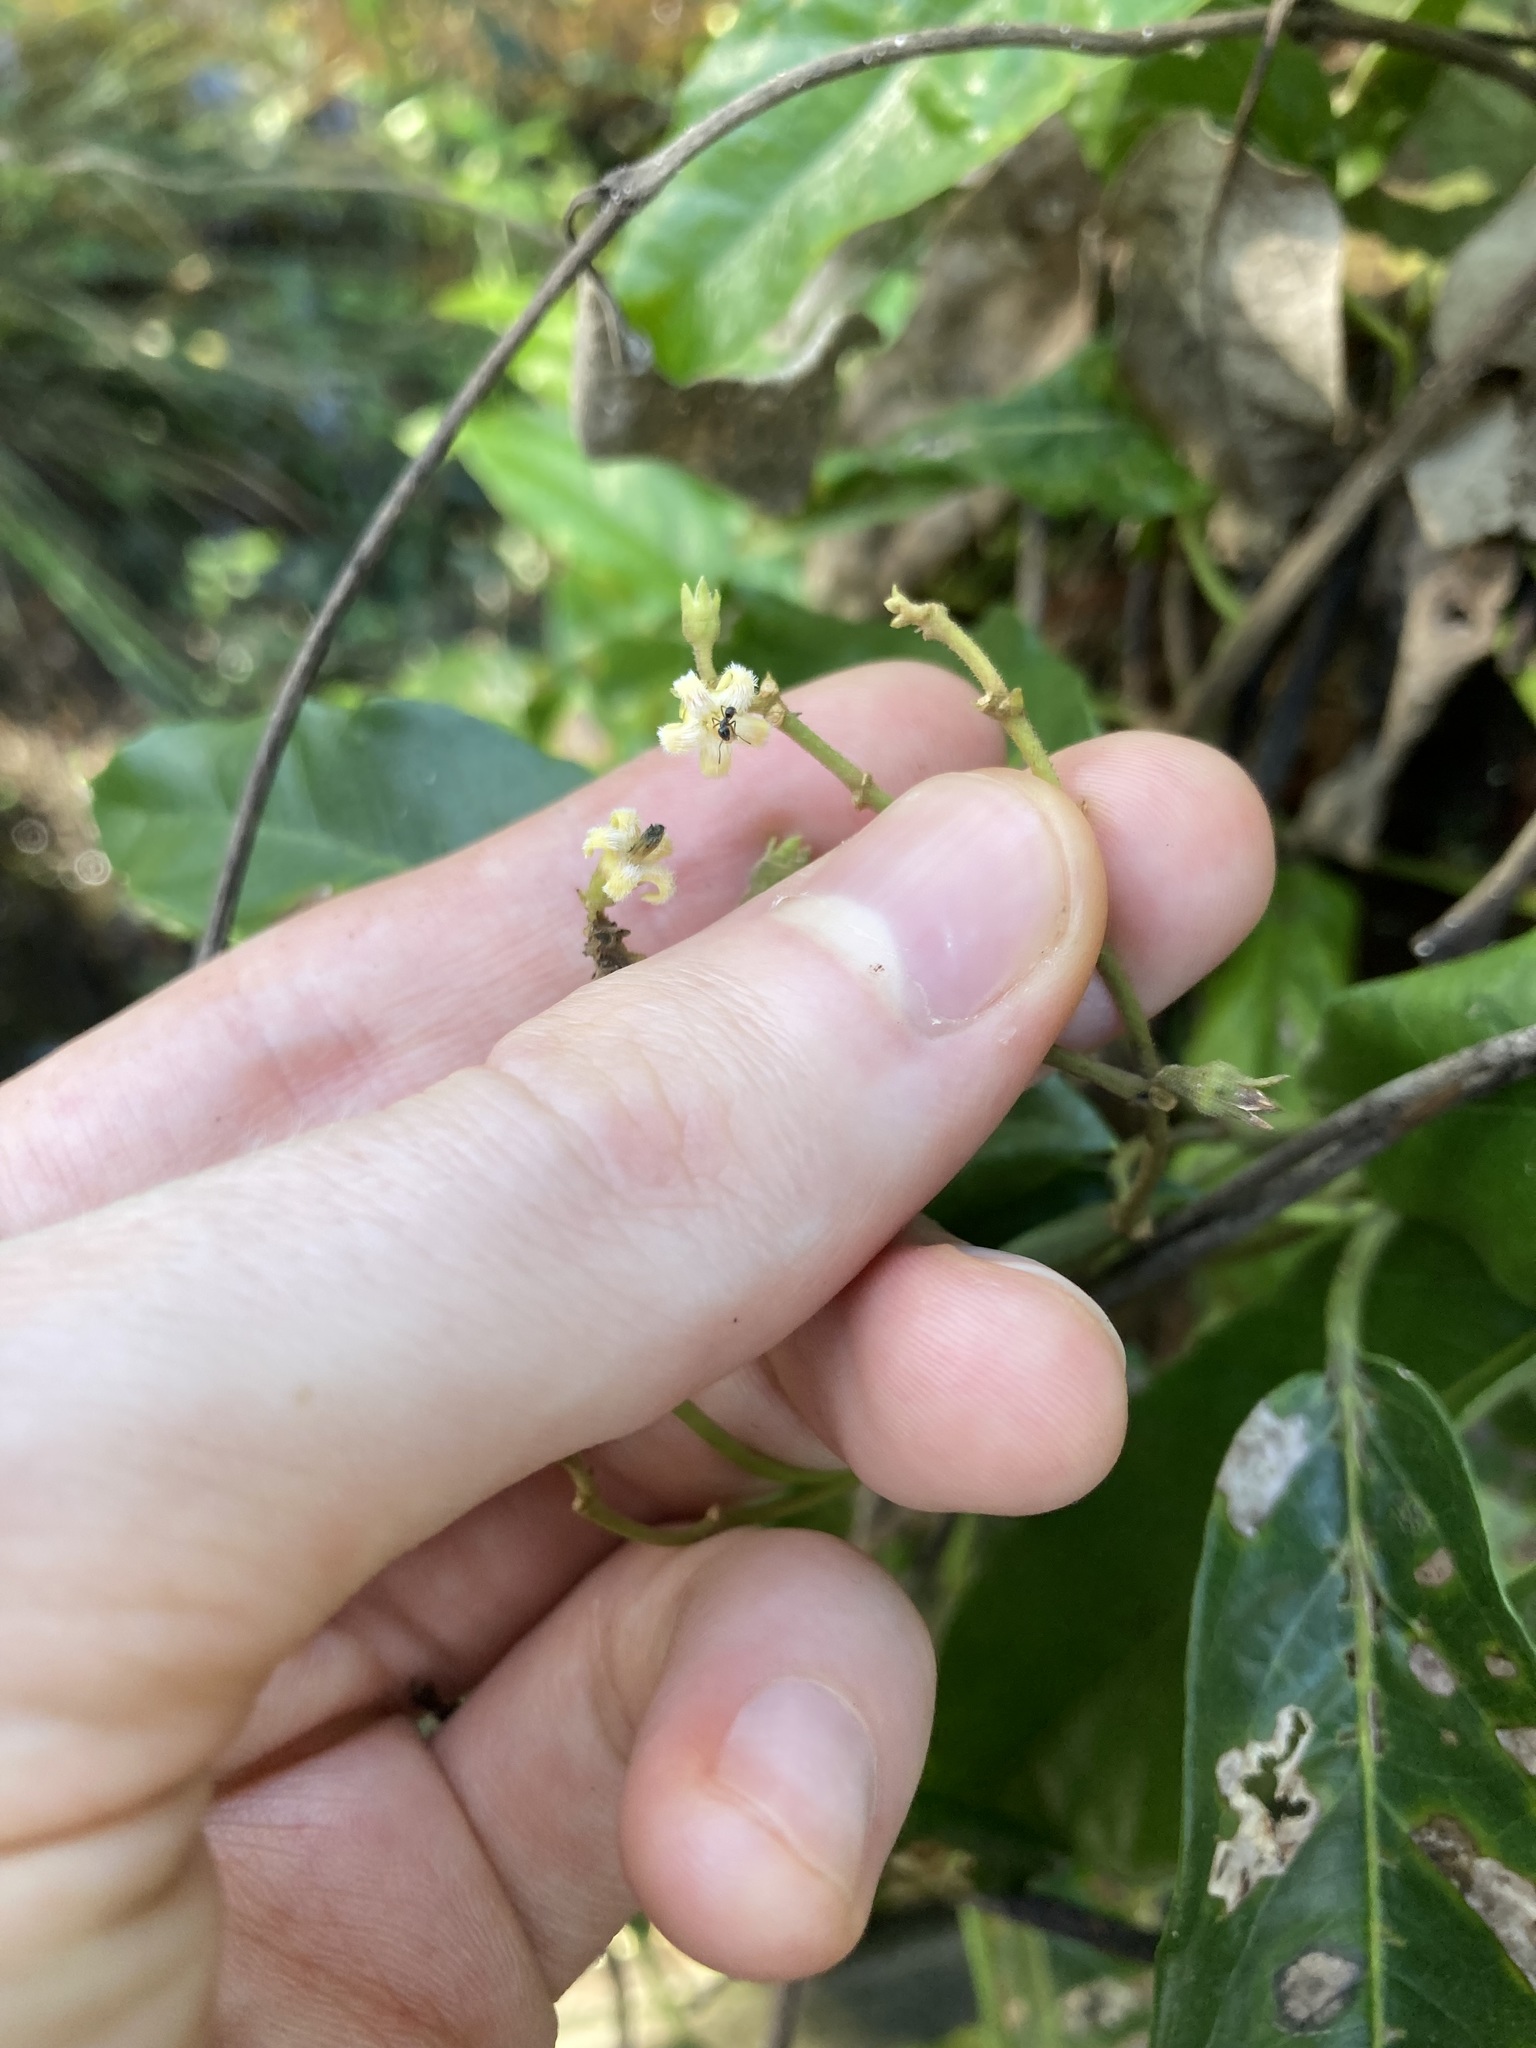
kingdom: Plantae
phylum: Tracheophyta
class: Magnoliopsida
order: Gentianales
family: Apocynaceae
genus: Parsonsia
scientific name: Parsonsia straminea
